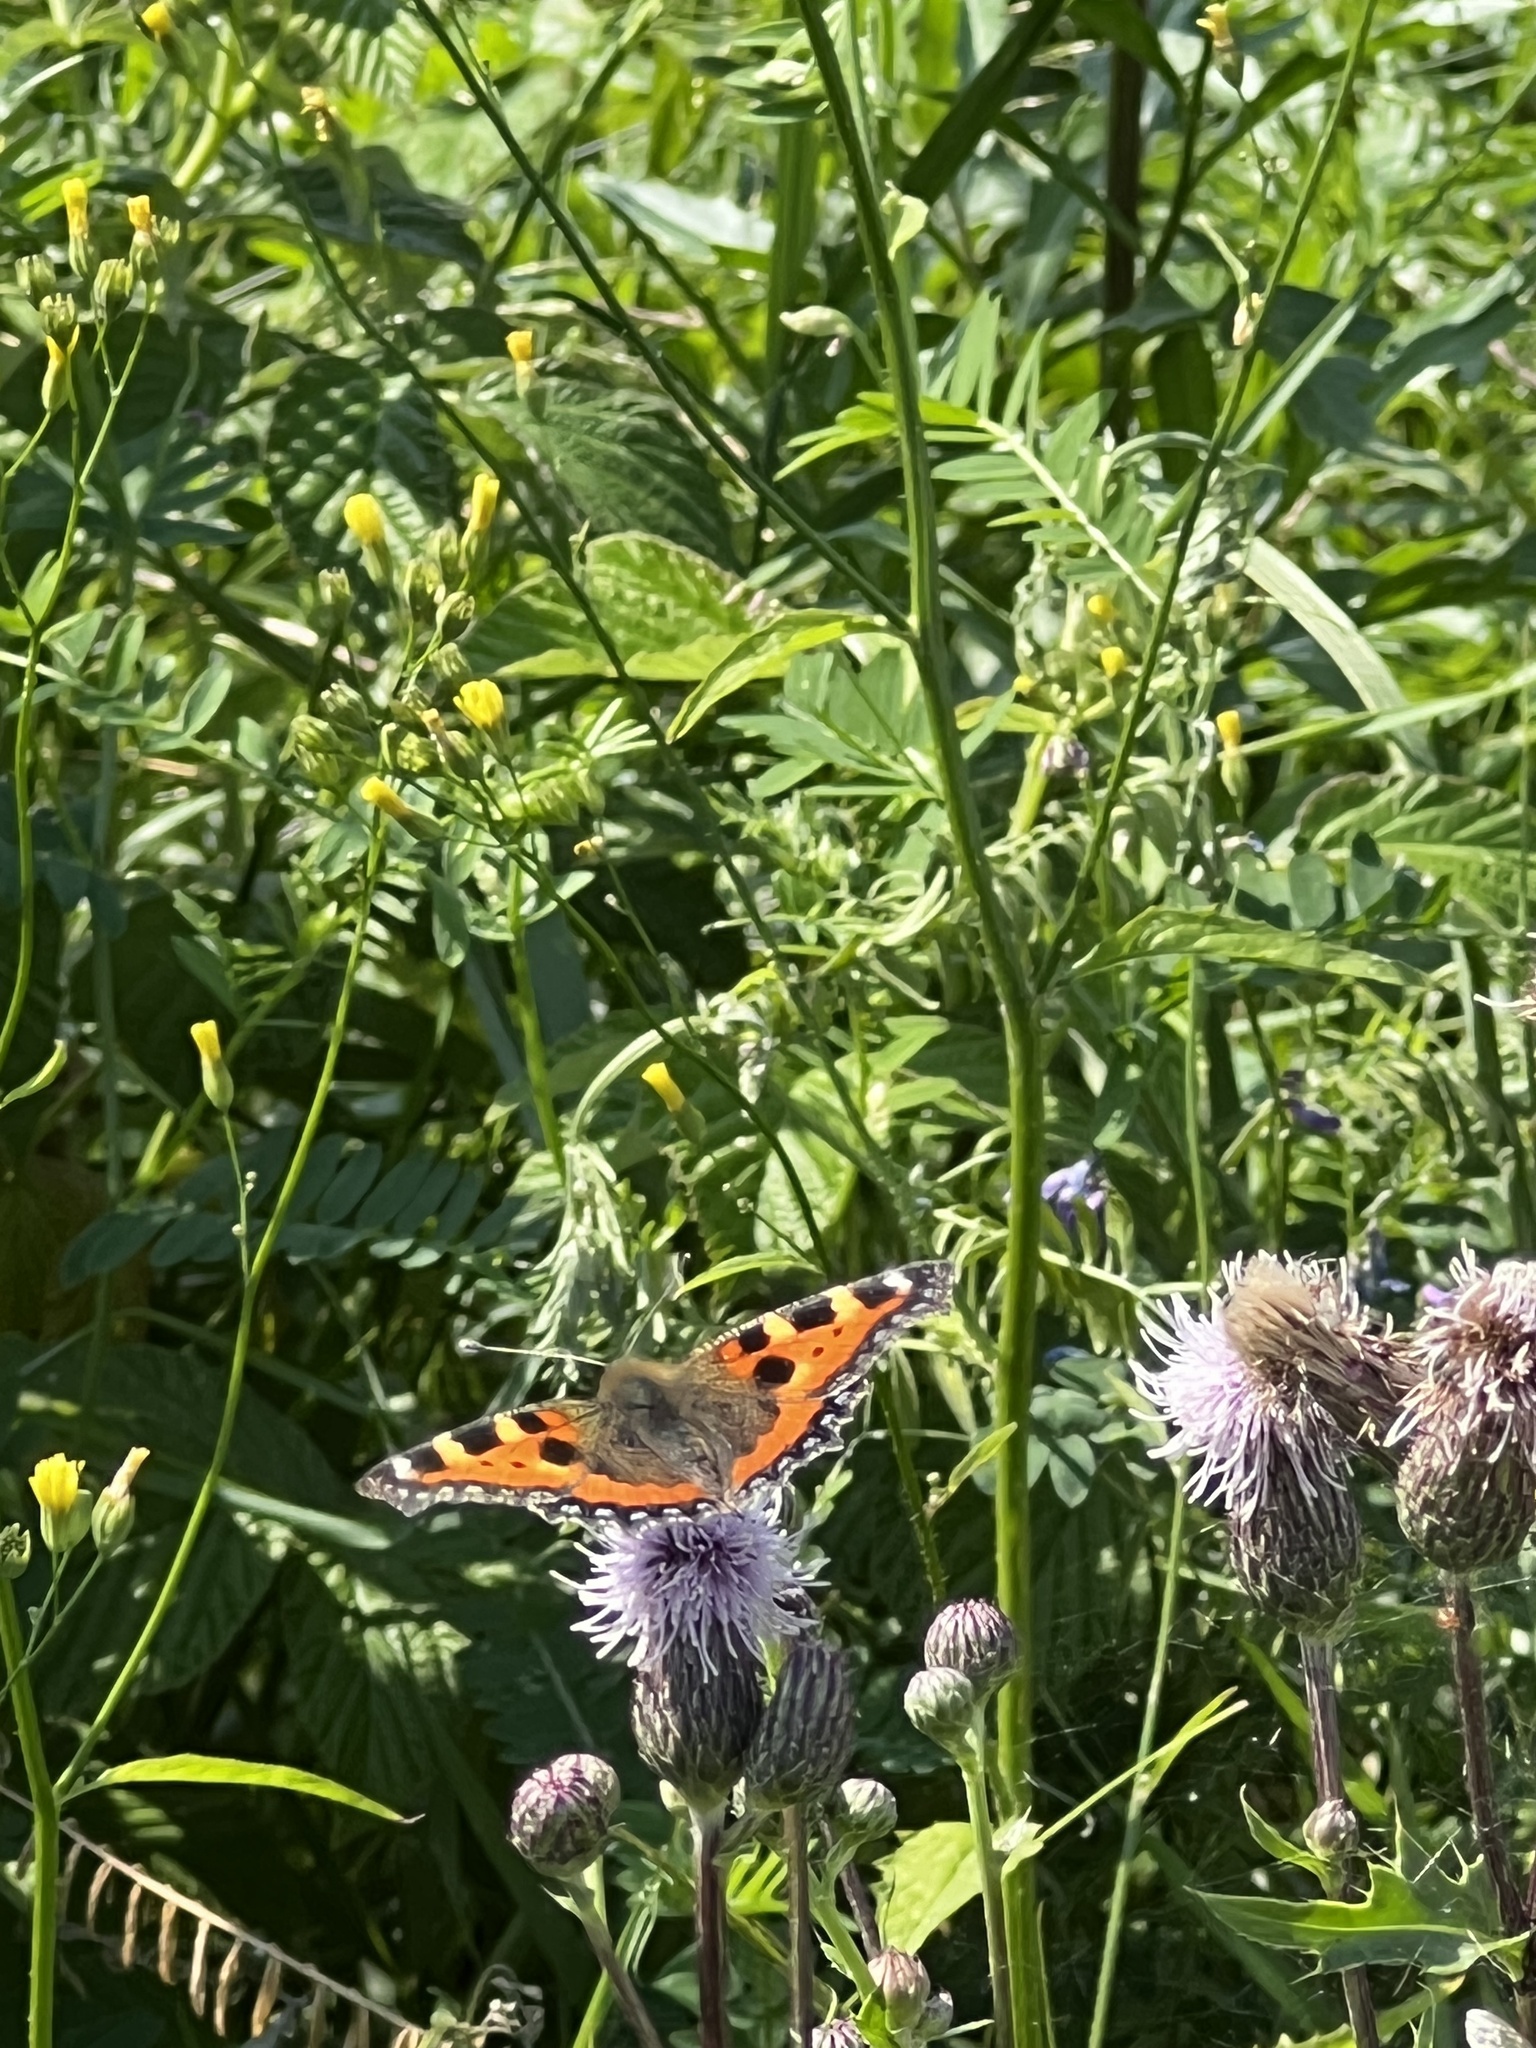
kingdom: Animalia
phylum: Arthropoda
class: Insecta
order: Lepidoptera
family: Nymphalidae
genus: Aglais
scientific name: Aglais urticae
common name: Small tortoiseshell
